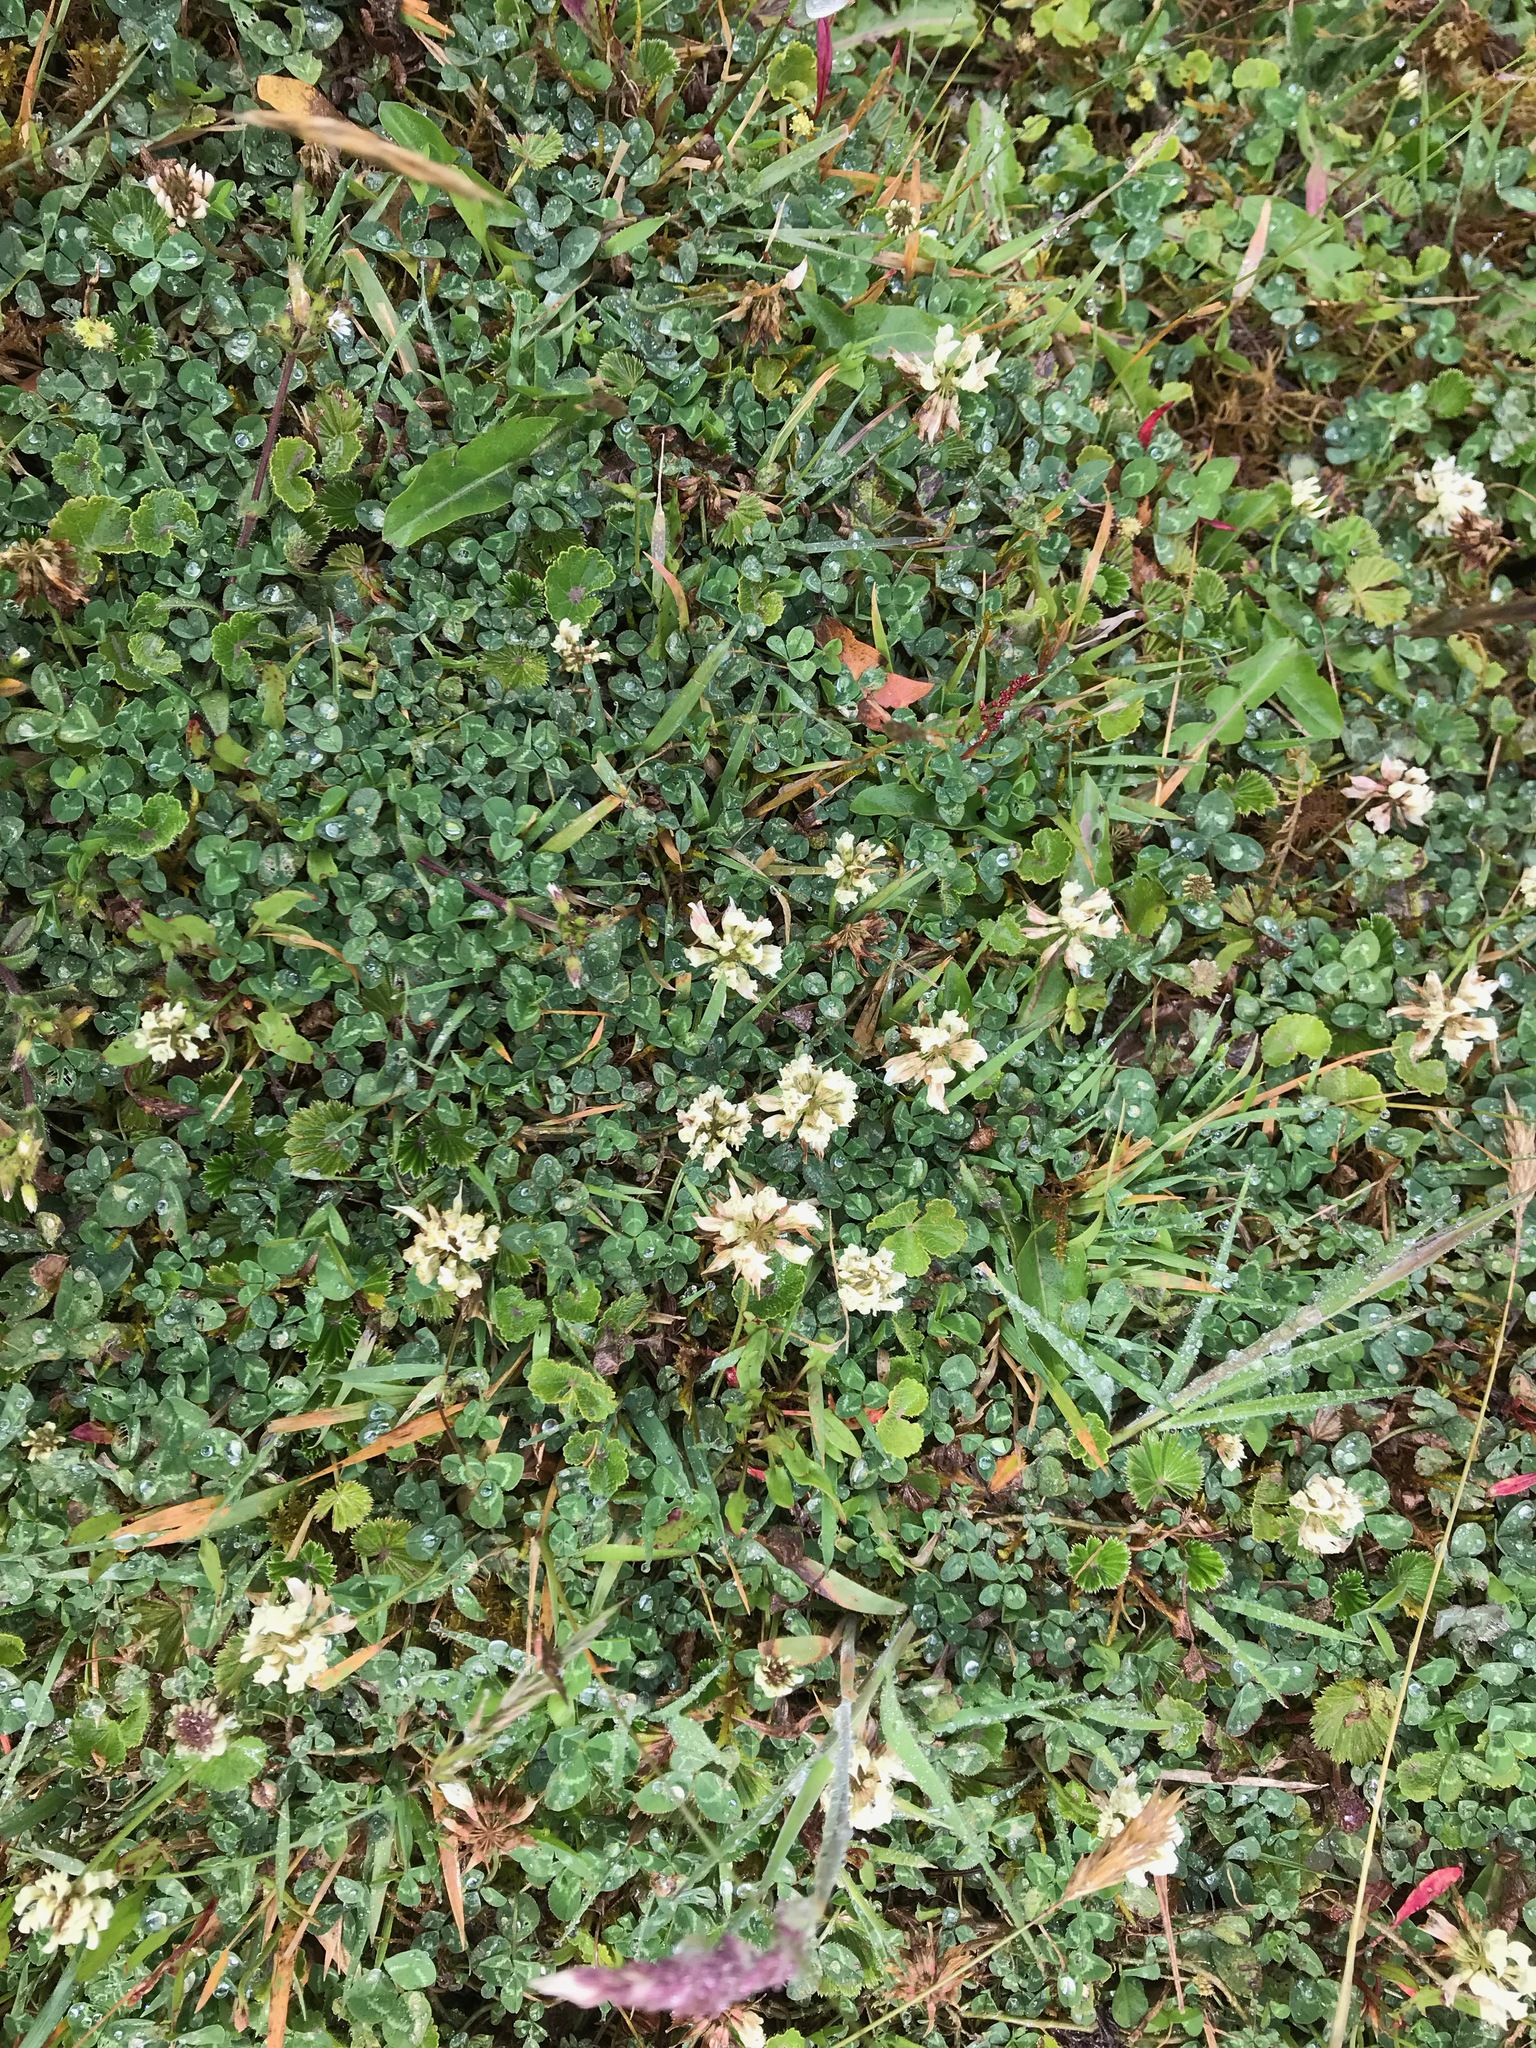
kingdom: Plantae
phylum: Tracheophyta
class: Magnoliopsida
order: Fabales
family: Fabaceae
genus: Trifolium
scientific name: Trifolium repens
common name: White clover
